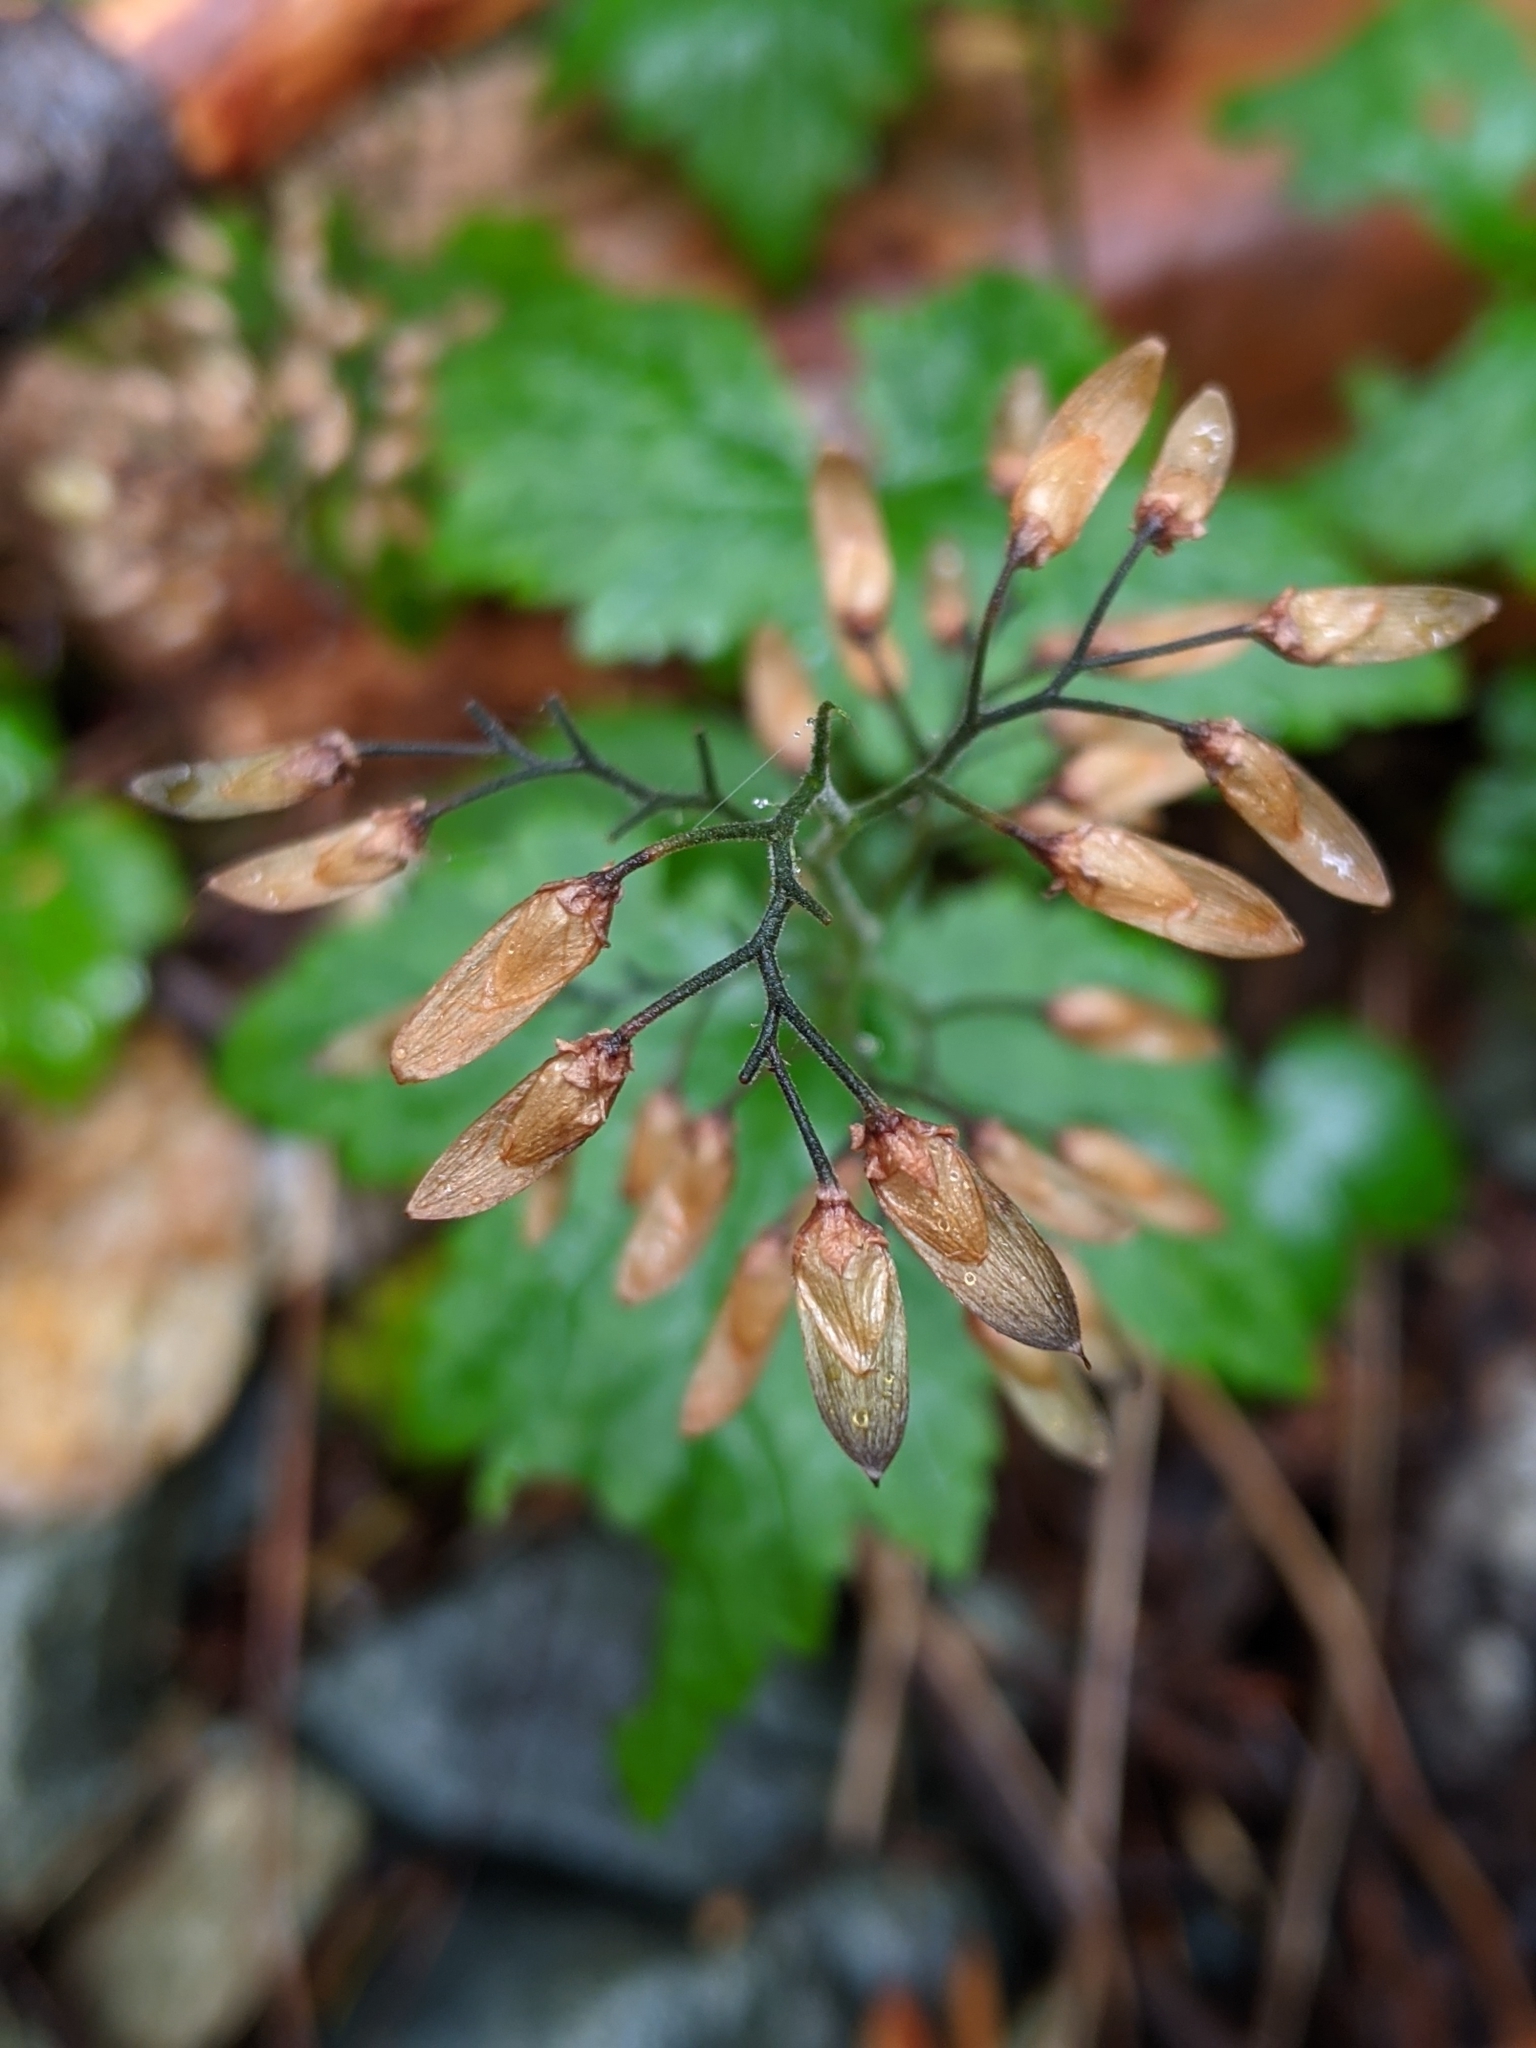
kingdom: Plantae
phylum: Tracheophyta
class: Magnoliopsida
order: Saxifragales
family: Saxifragaceae
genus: Tiarella
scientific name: Tiarella trifoliata
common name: Sugar-scoop
